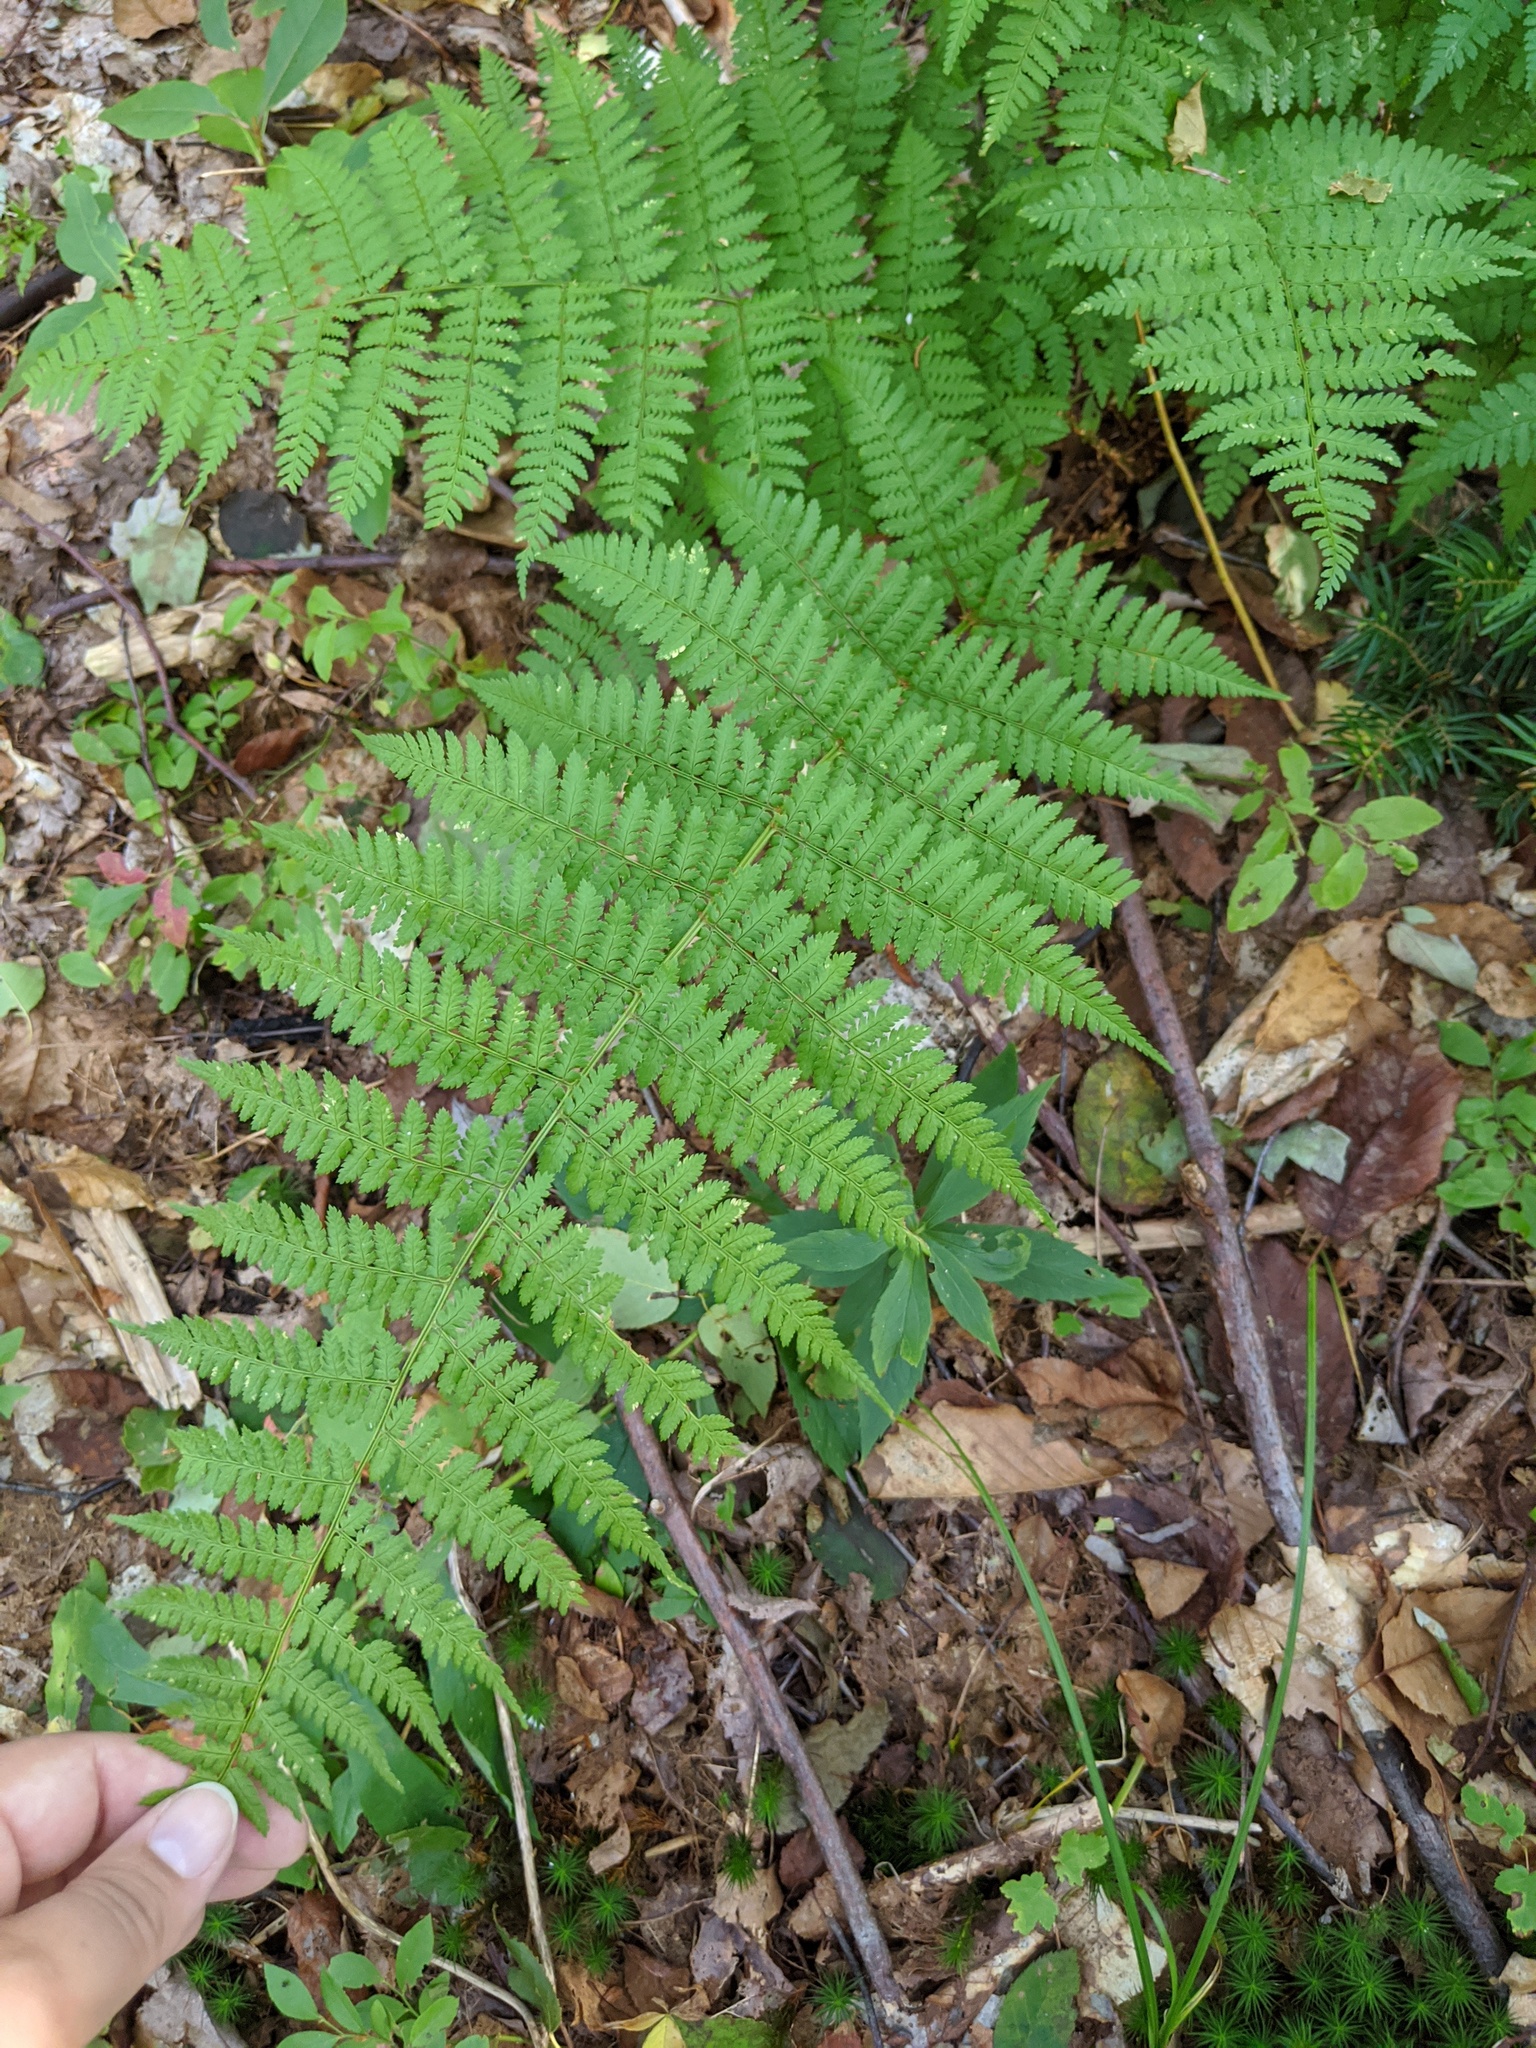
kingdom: Plantae
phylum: Tracheophyta
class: Polypodiopsida
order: Polypodiales
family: Dryopteridaceae
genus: Dryopteris
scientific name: Dryopteris intermedia
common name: Evergreen wood fern
